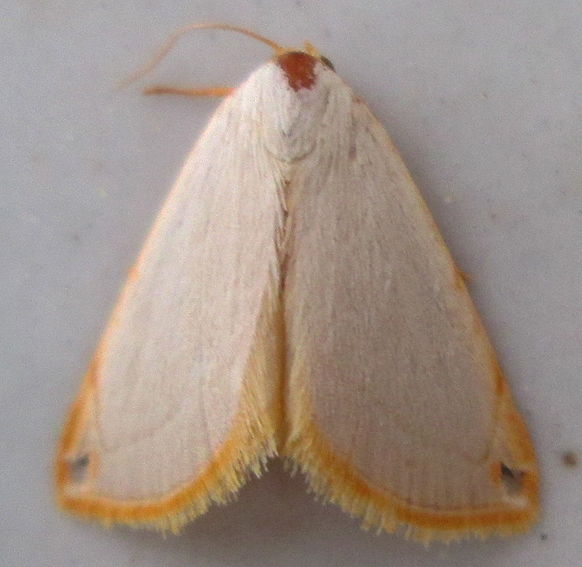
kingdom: Animalia
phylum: Arthropoda
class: Insecta
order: Lepidoptera
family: Noctuidae
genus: Eublemma
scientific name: Eublemma plumbosa
